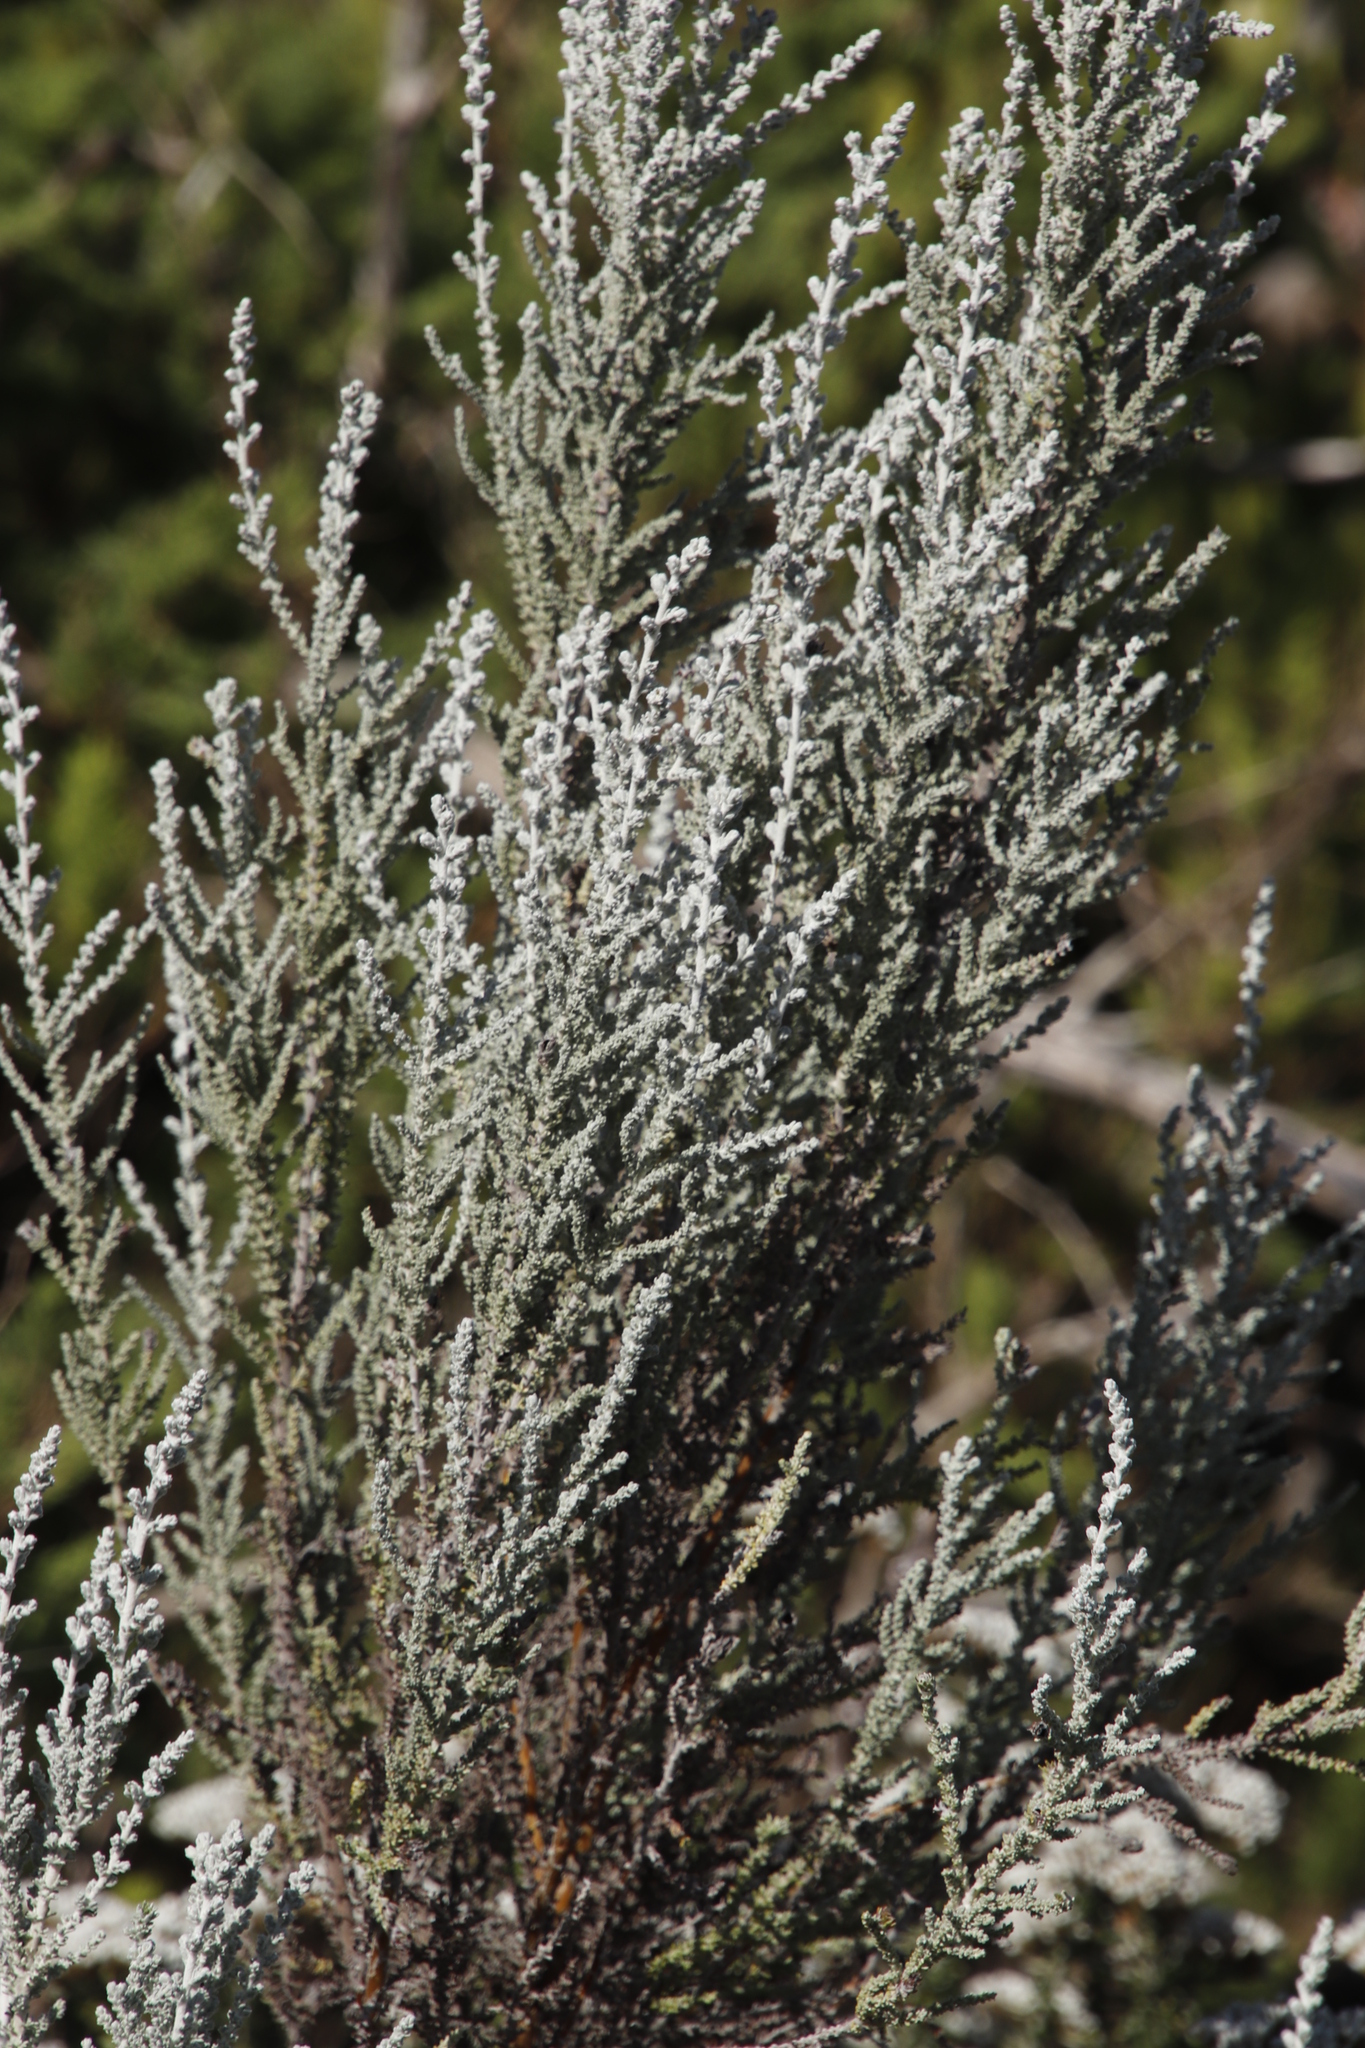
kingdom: Plantae
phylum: Tracheophyta
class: Magnoliopsida
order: Asterales
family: Asteraceae
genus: Seriphium
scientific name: Seriphium plumosum
